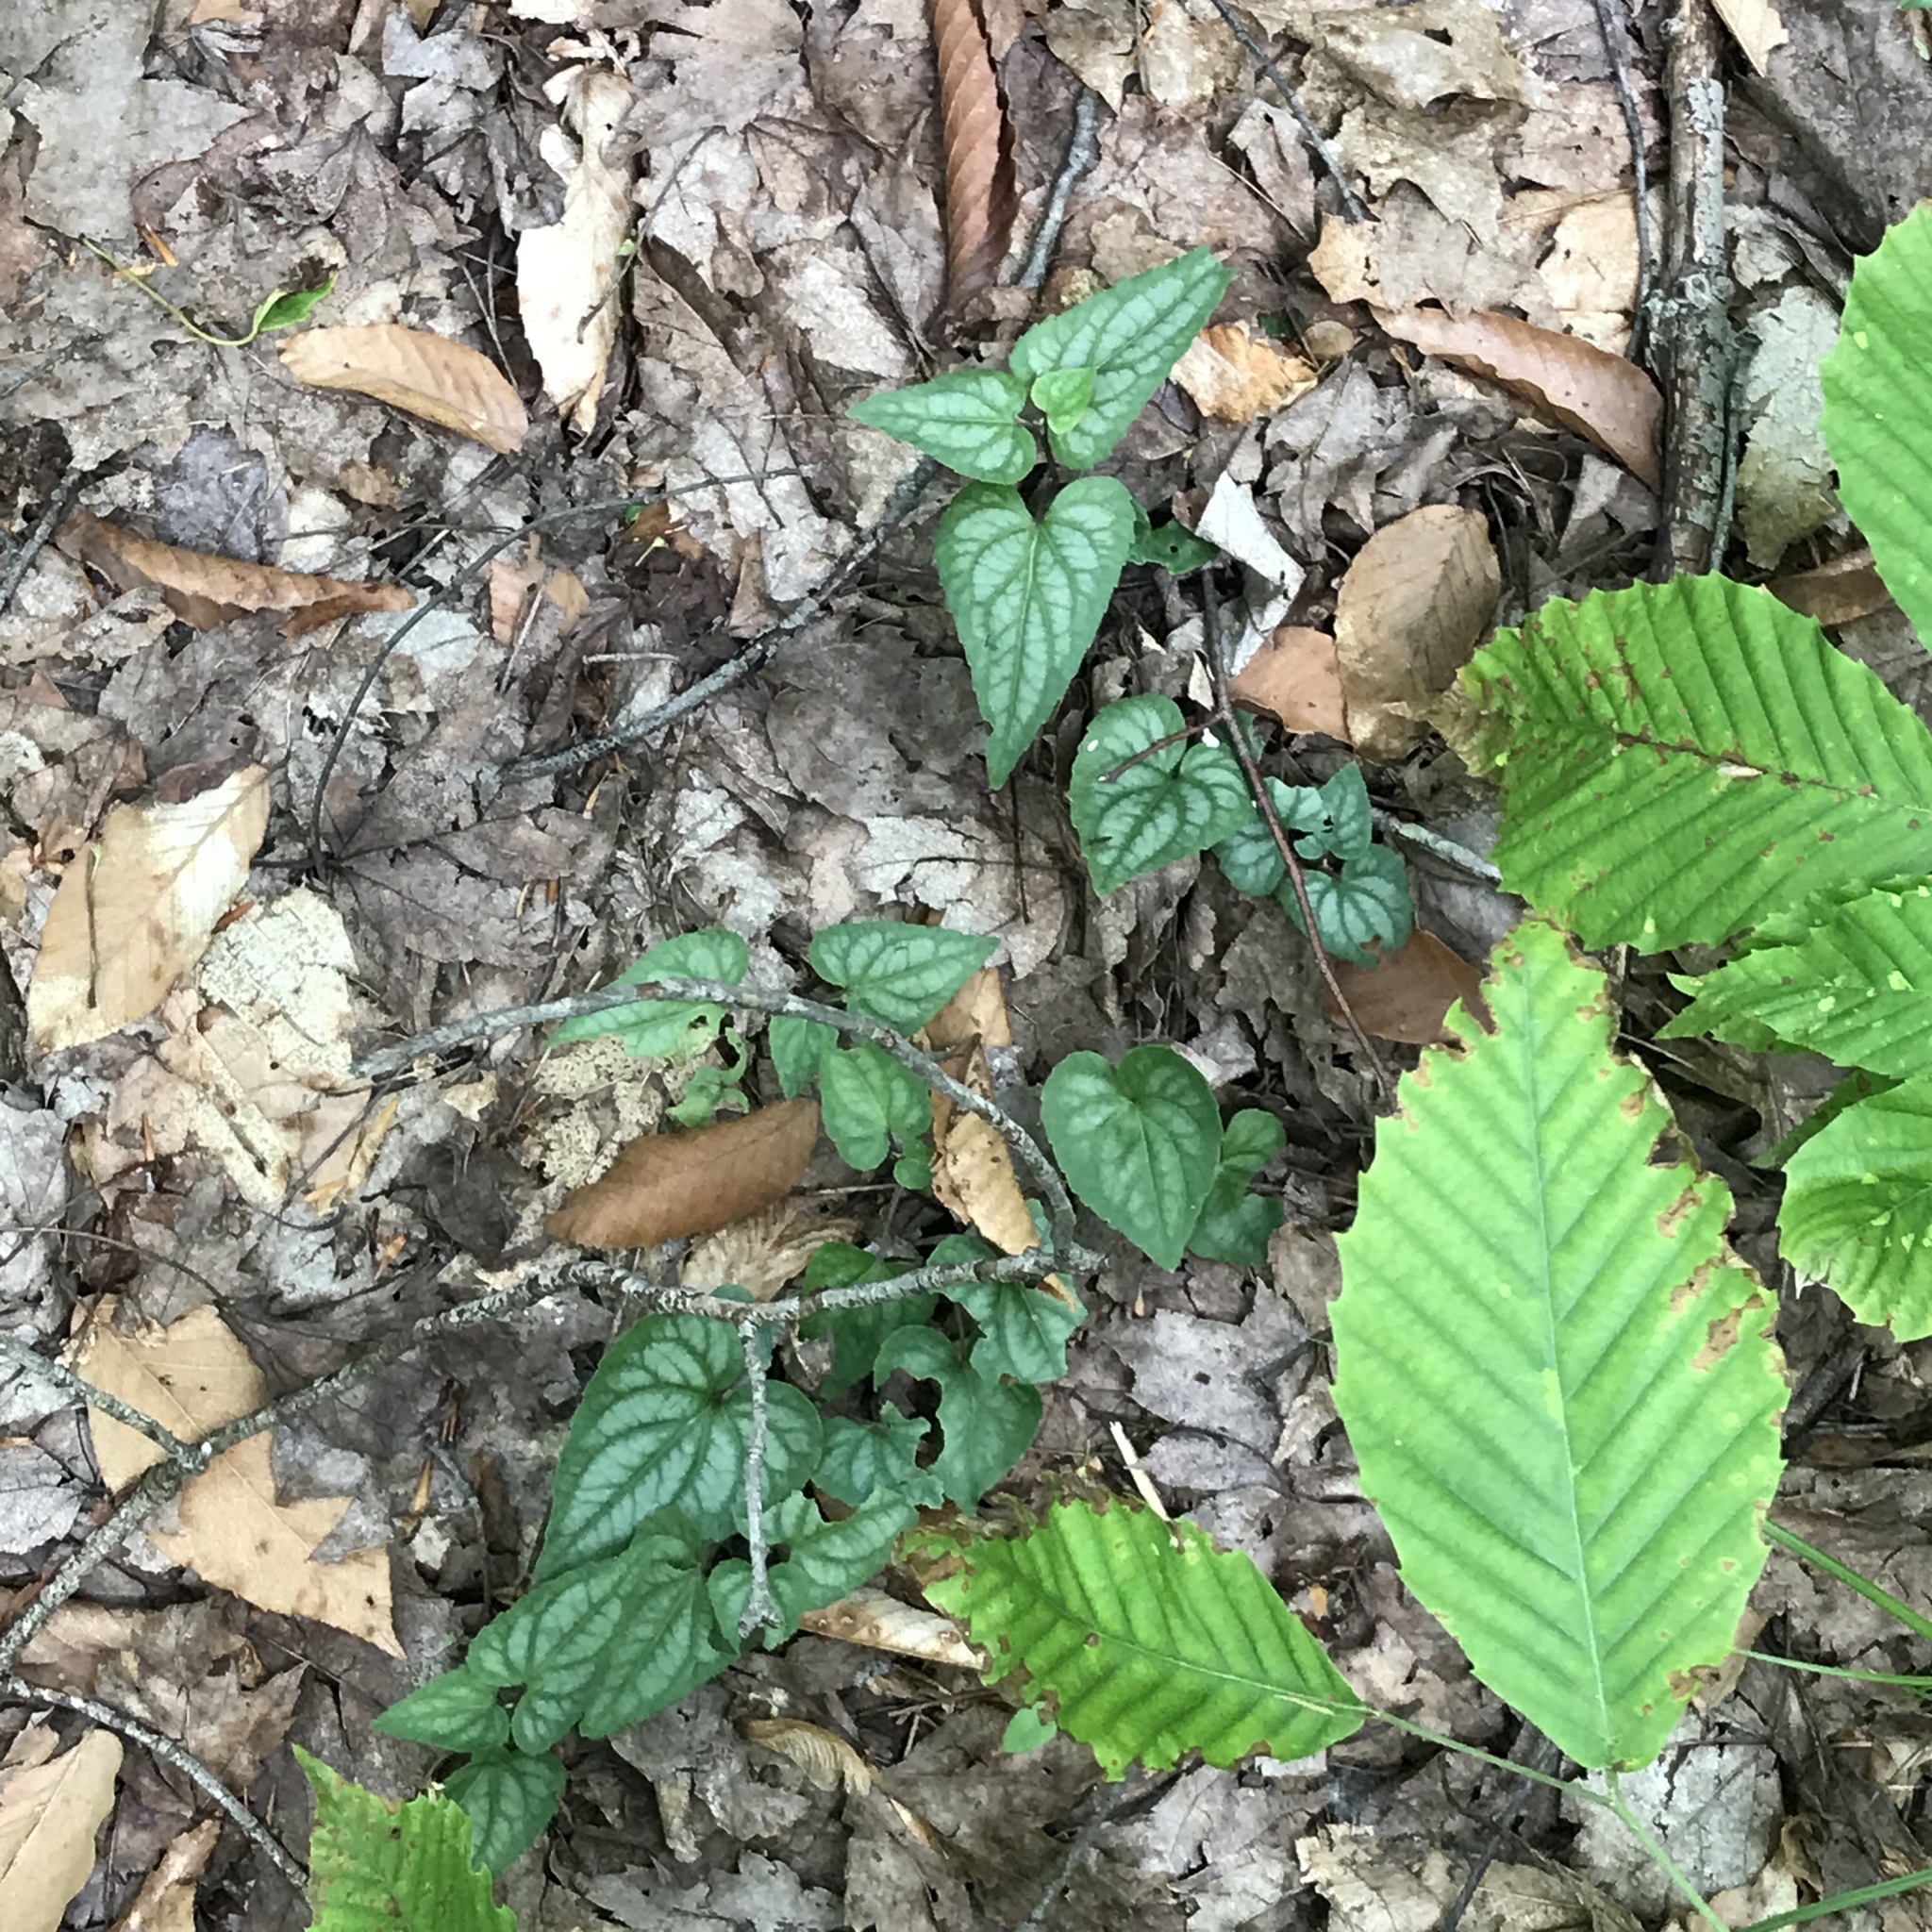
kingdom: Plantae
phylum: Tracheophyta
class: Magnoliopsida
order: Malpighiales
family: Violaceae
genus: Viola
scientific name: Viola hastata
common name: Spear-leaf violet
